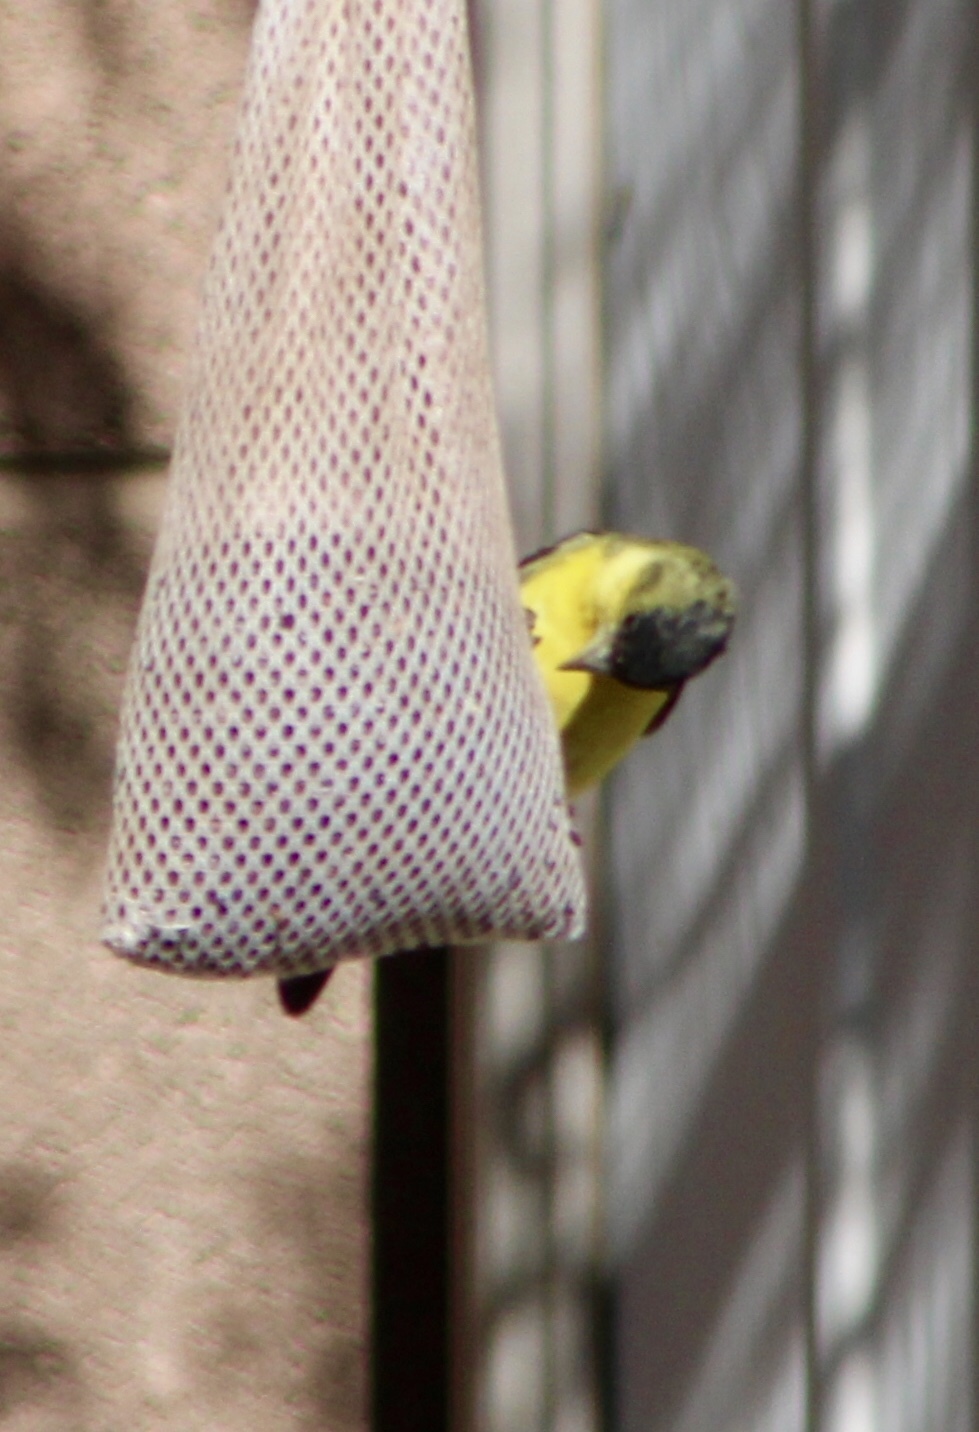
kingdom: Animalia
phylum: Chordata
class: Aves
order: Passeriformes
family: Fringillidae
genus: Spinus
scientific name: Spinus psaltria
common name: Lesser goldfinch
